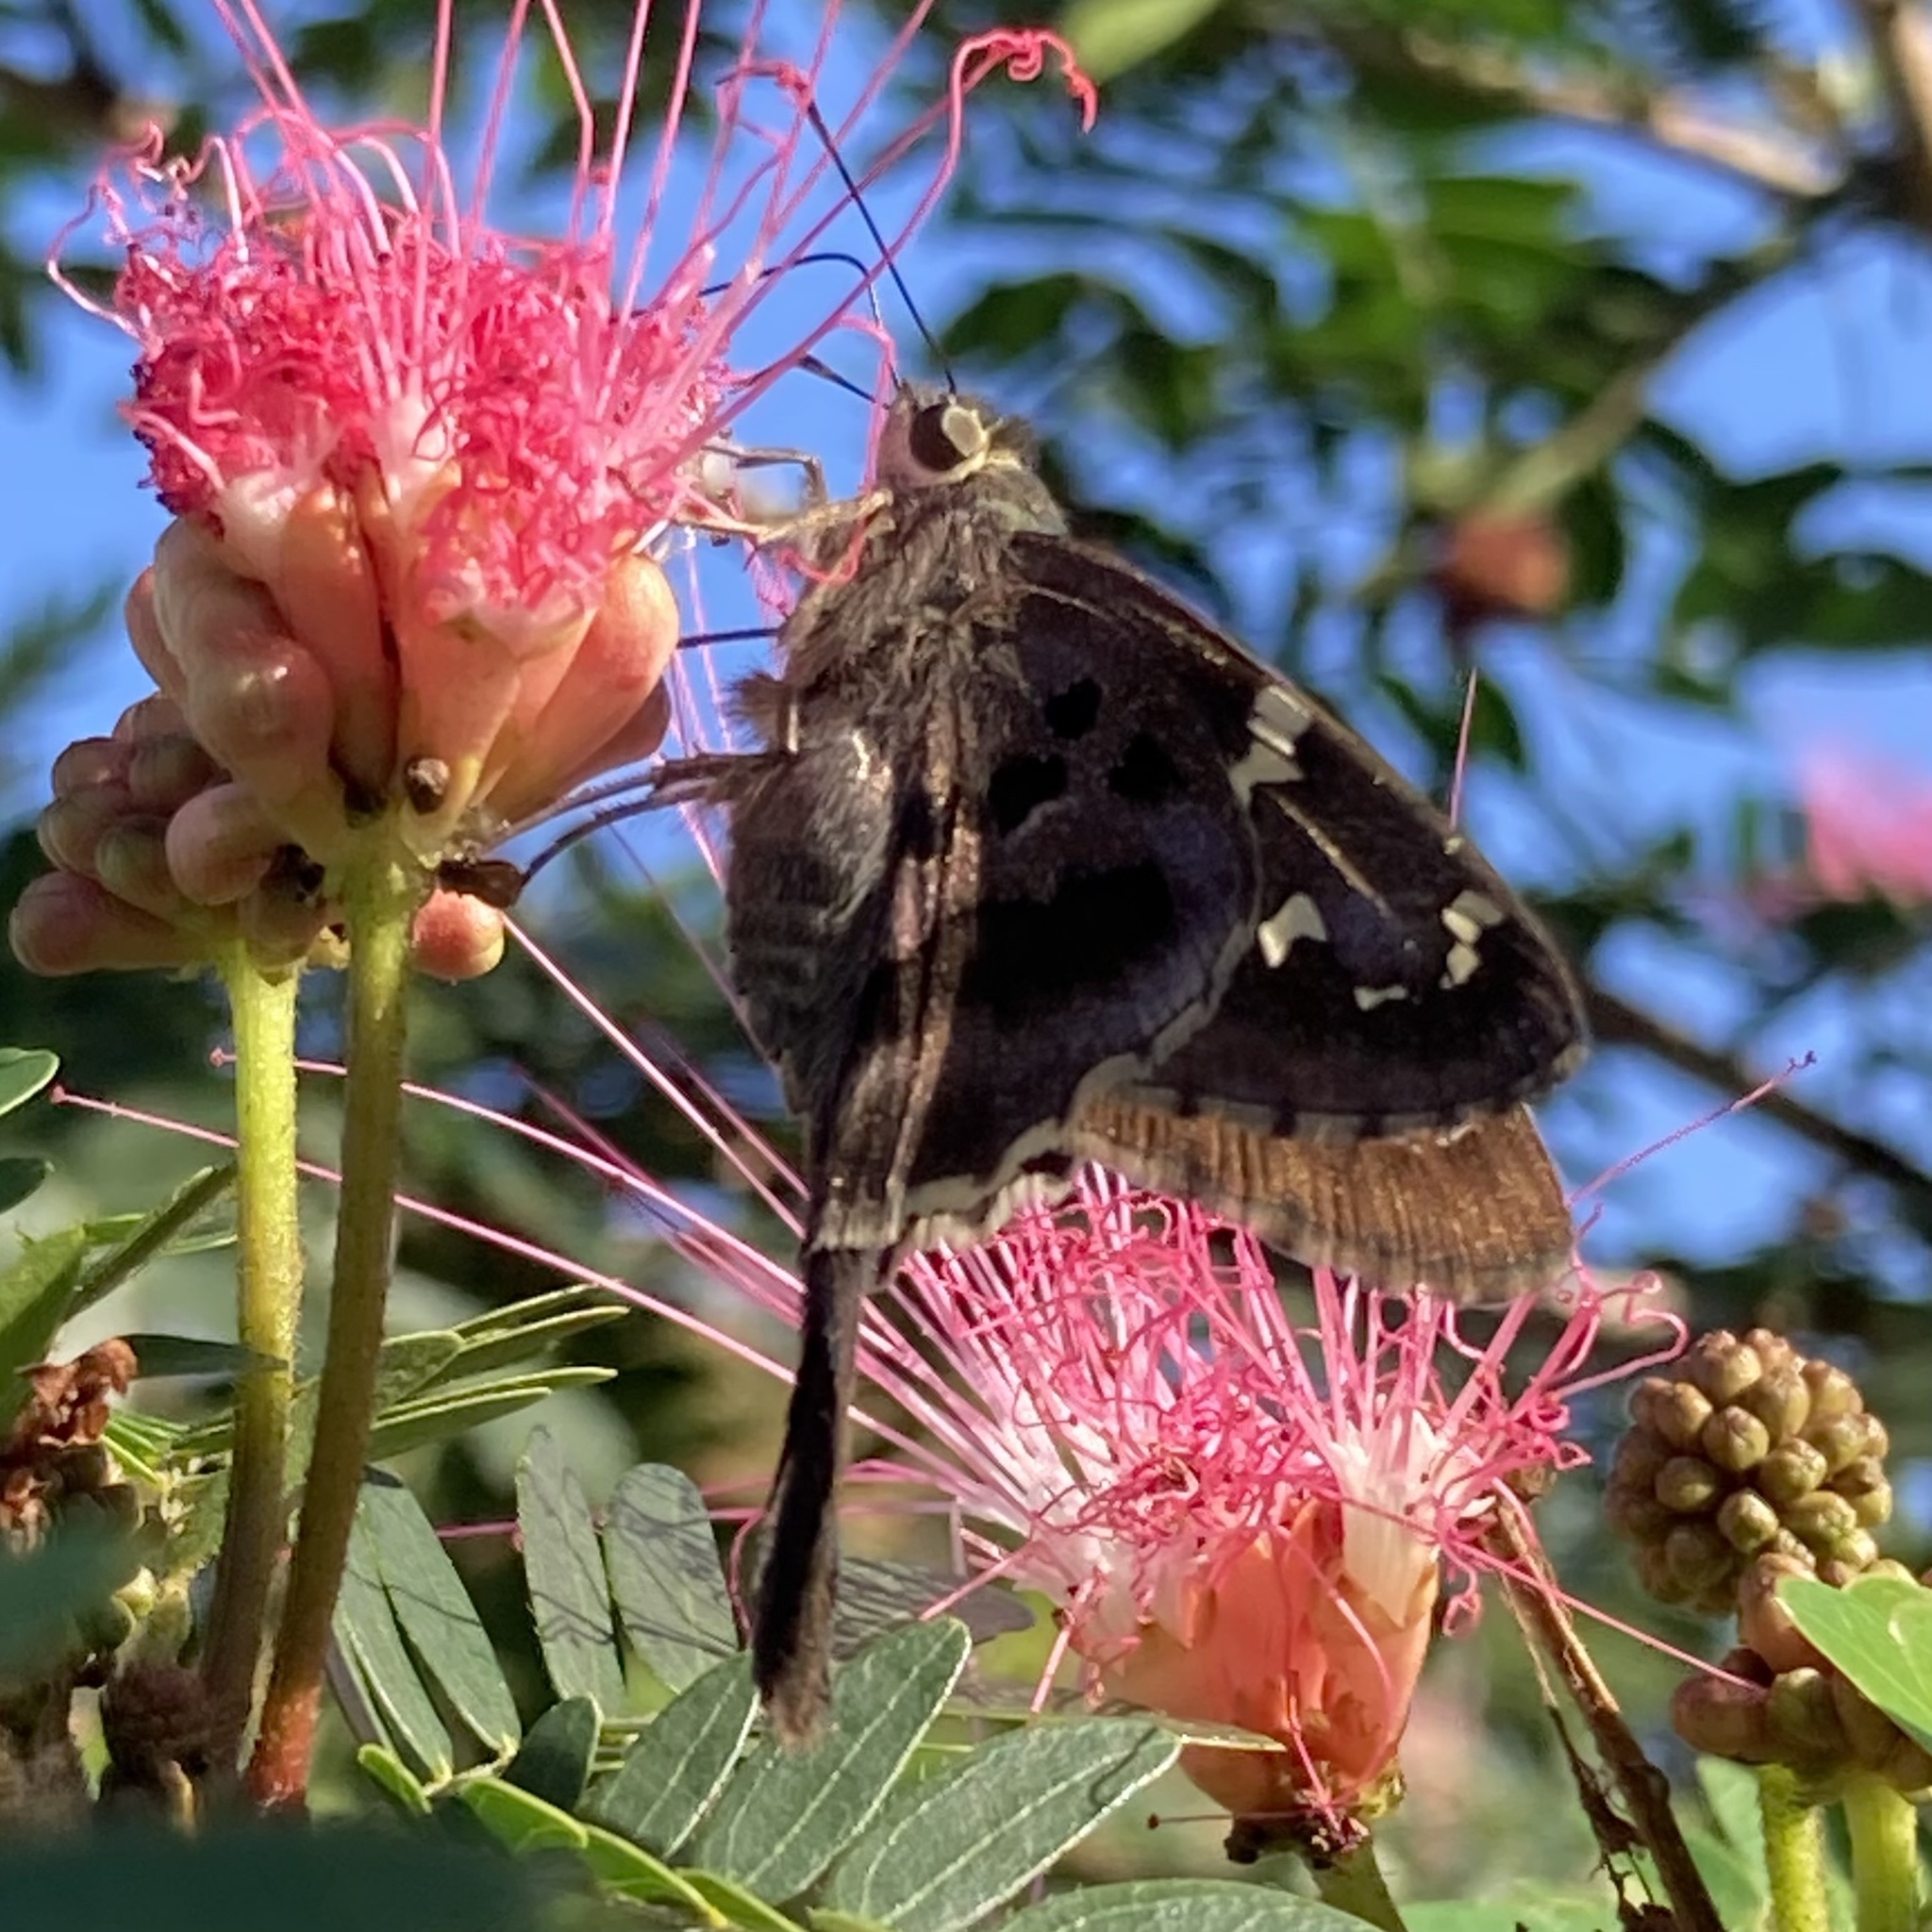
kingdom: Animalia
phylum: Arthropoda
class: Insecta
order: Lepidoptera
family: Hesperiidae
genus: Urbanus
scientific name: Urbanus proteus
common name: Long-tailed skipper
